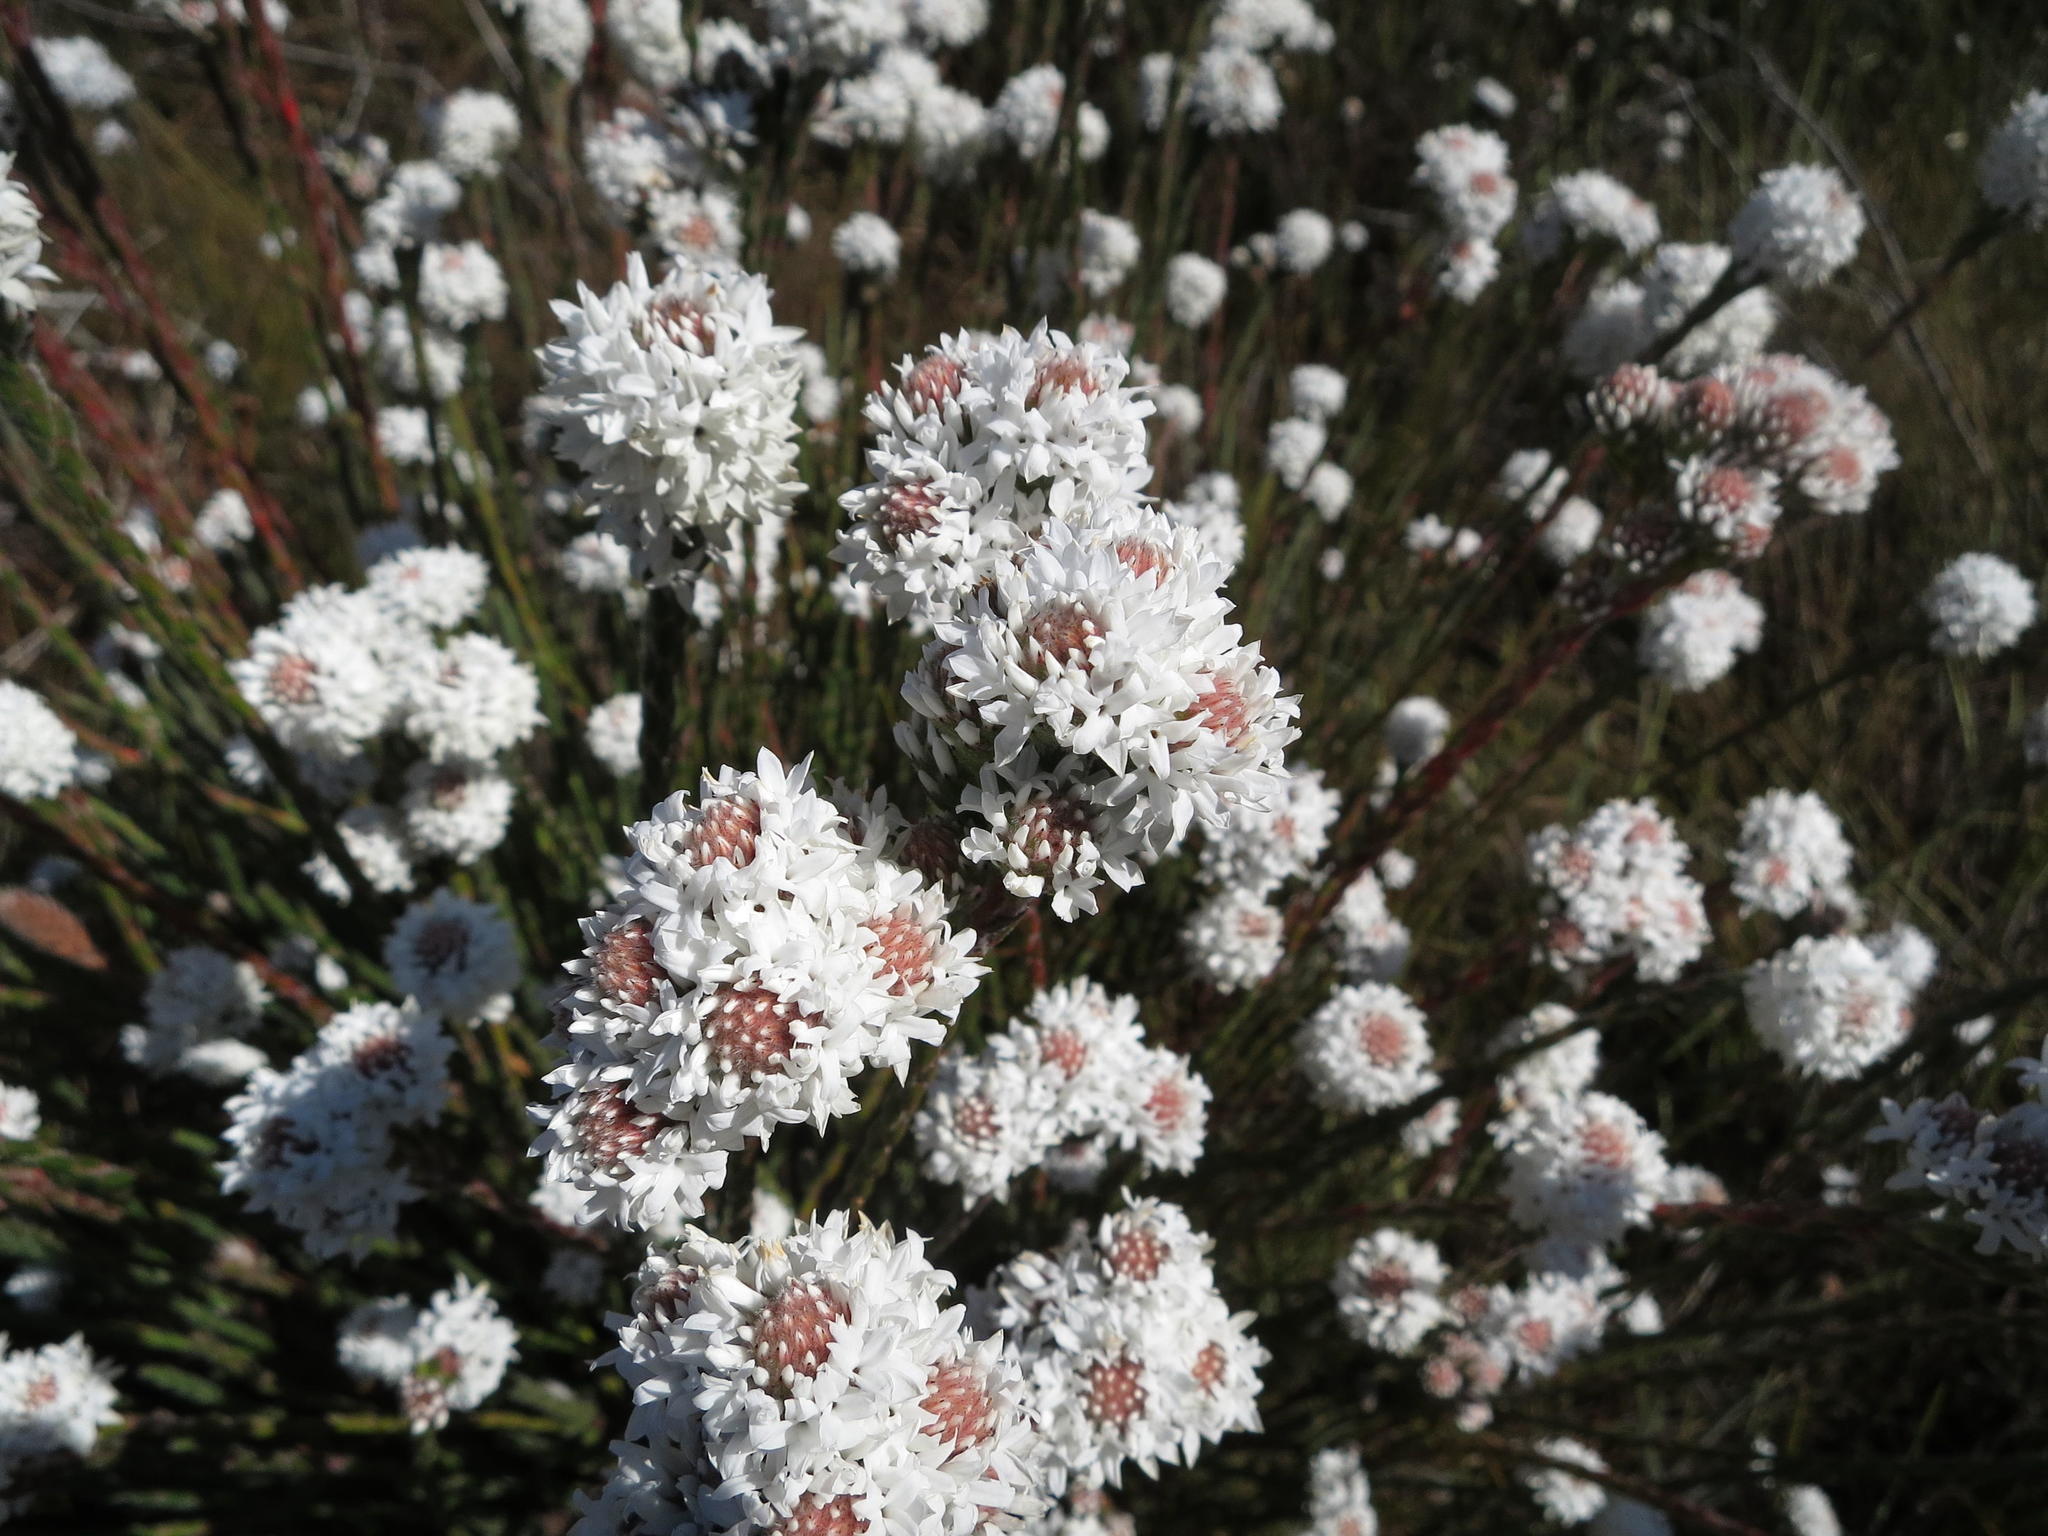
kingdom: Plantae
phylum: Tracheophyta
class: Magnoliopsida
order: Bruniales
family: Bruniaceae
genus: Brunia
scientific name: Brunia monogyna
